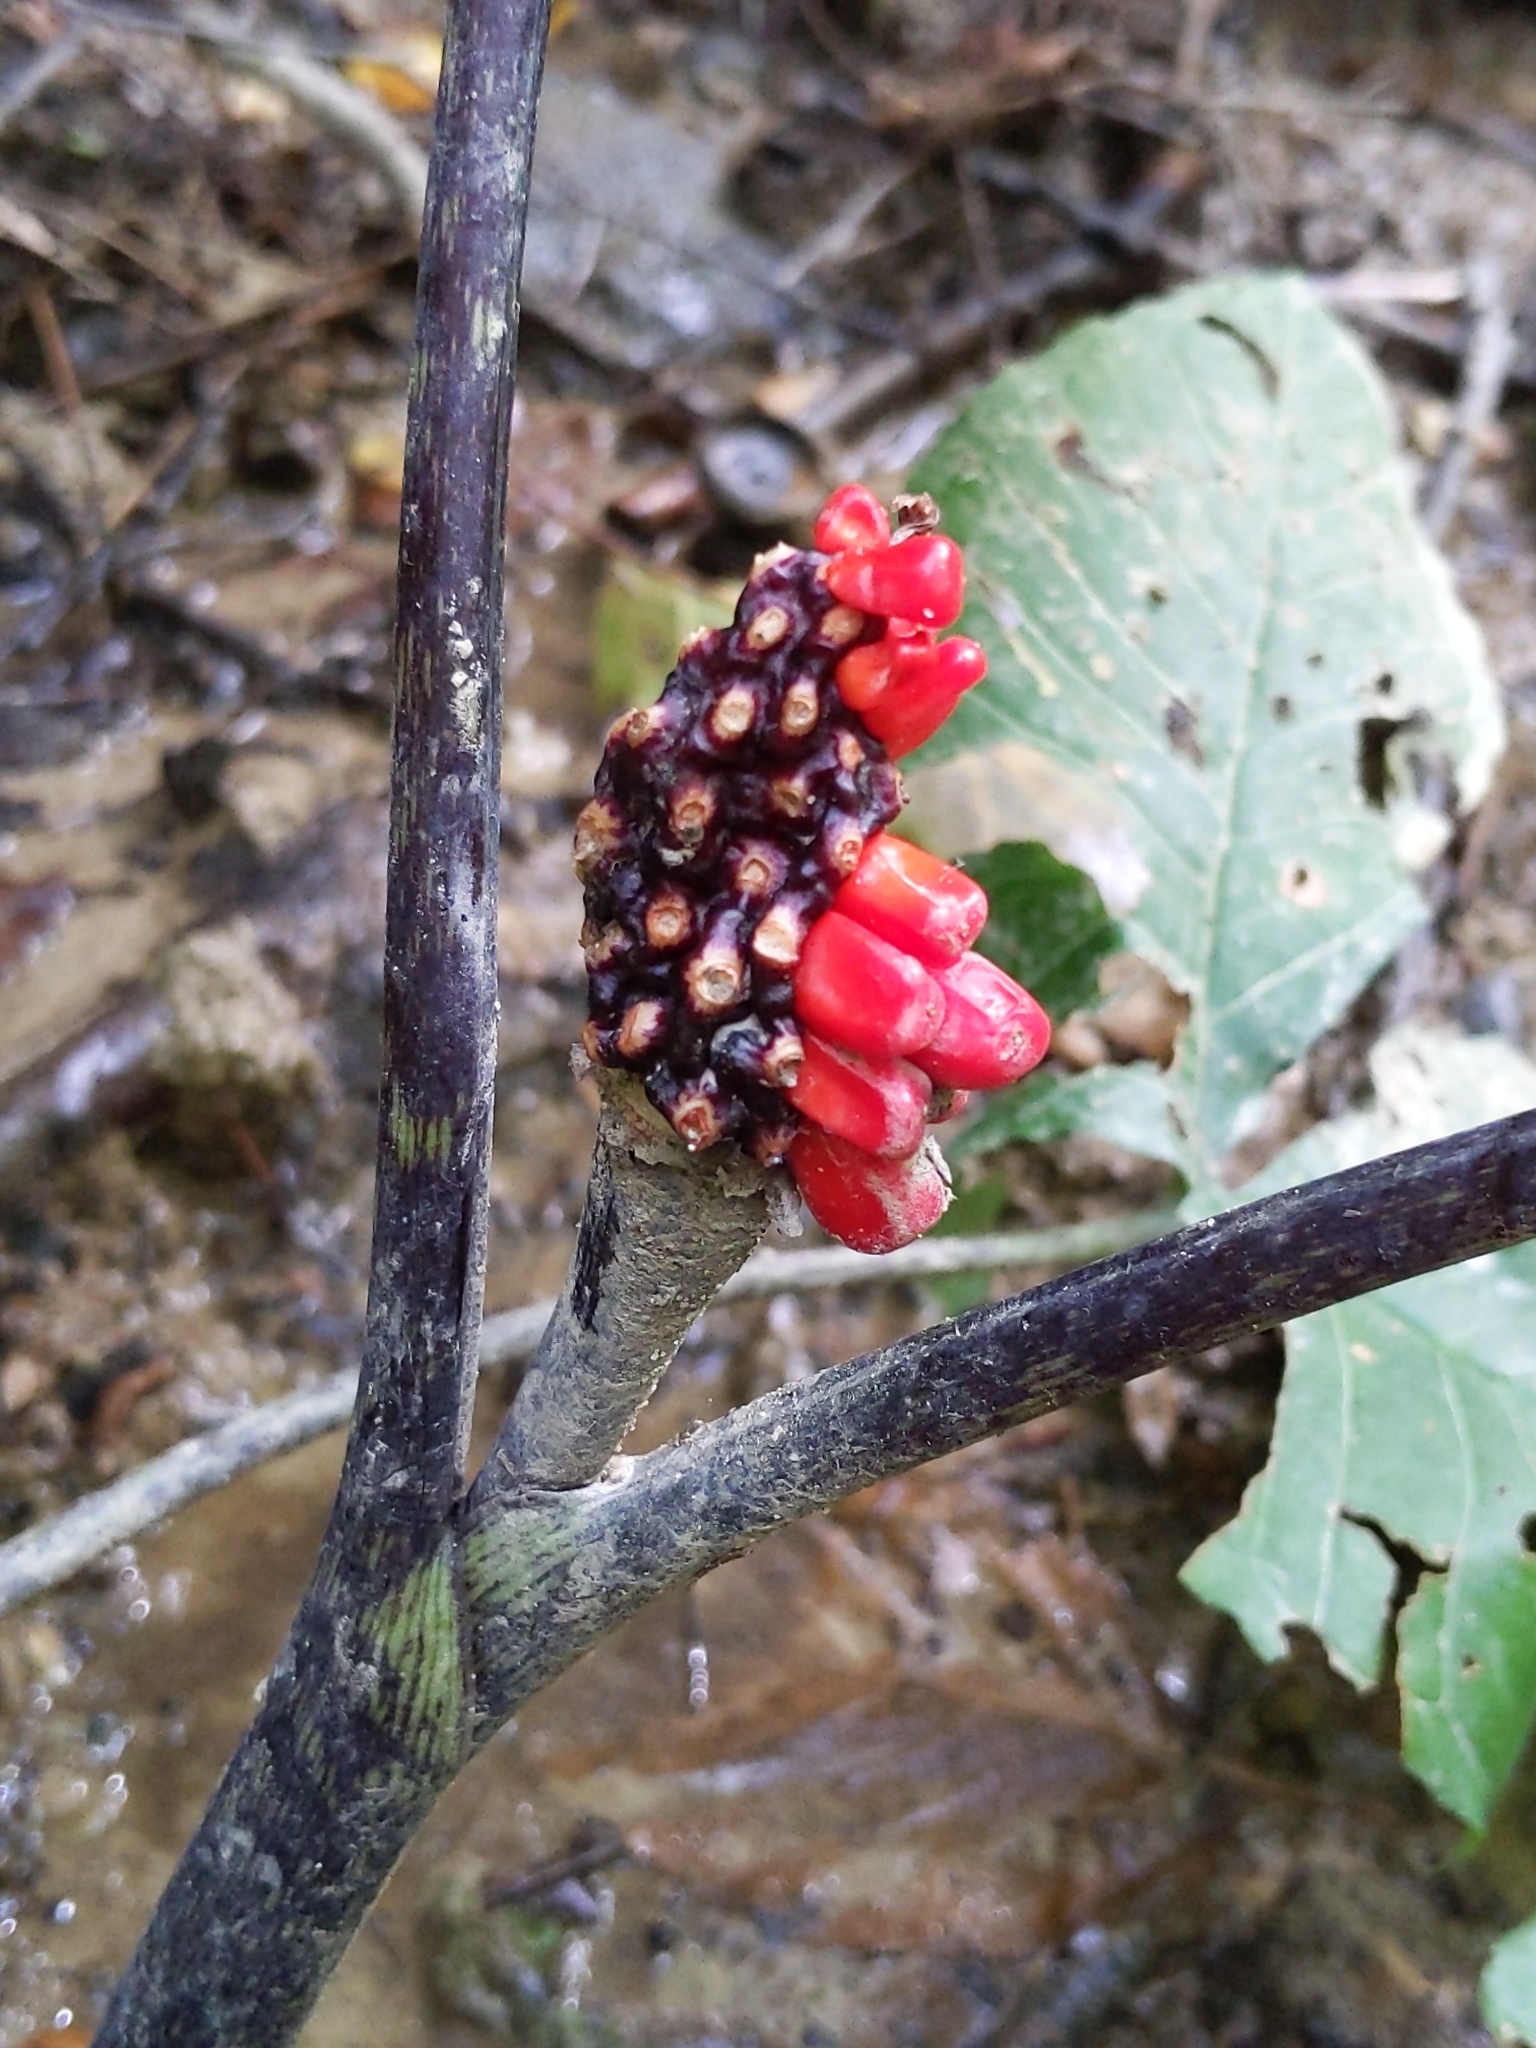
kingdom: Plantae
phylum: Tracheophyta
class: Liliopsida
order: Alismatales
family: Araceae
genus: Arisaema
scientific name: Arisaema triphyllum
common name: Jack-in-the-pulpit
